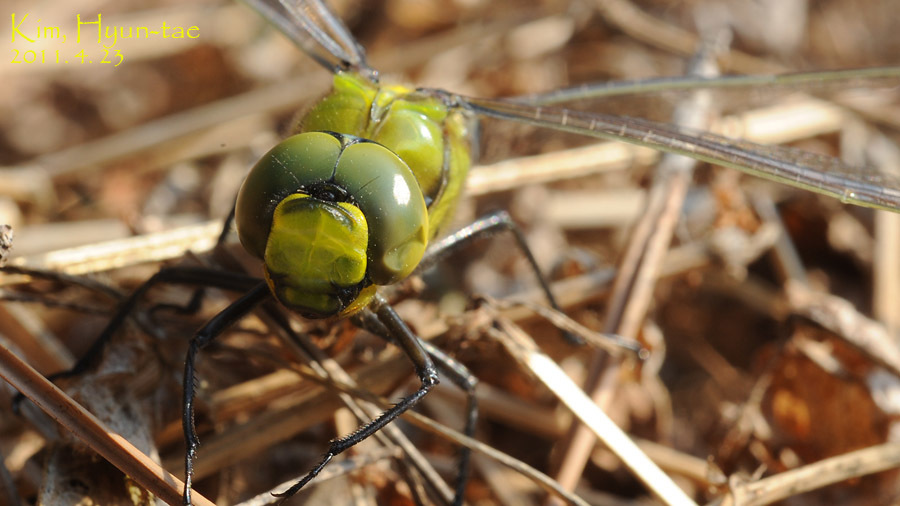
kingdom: Animalia
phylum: Arthropoda
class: Insecta
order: Odonata
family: Aeshnidae
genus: Anax
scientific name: Anax nigrofasciatus
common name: Blue-spotted emperor
